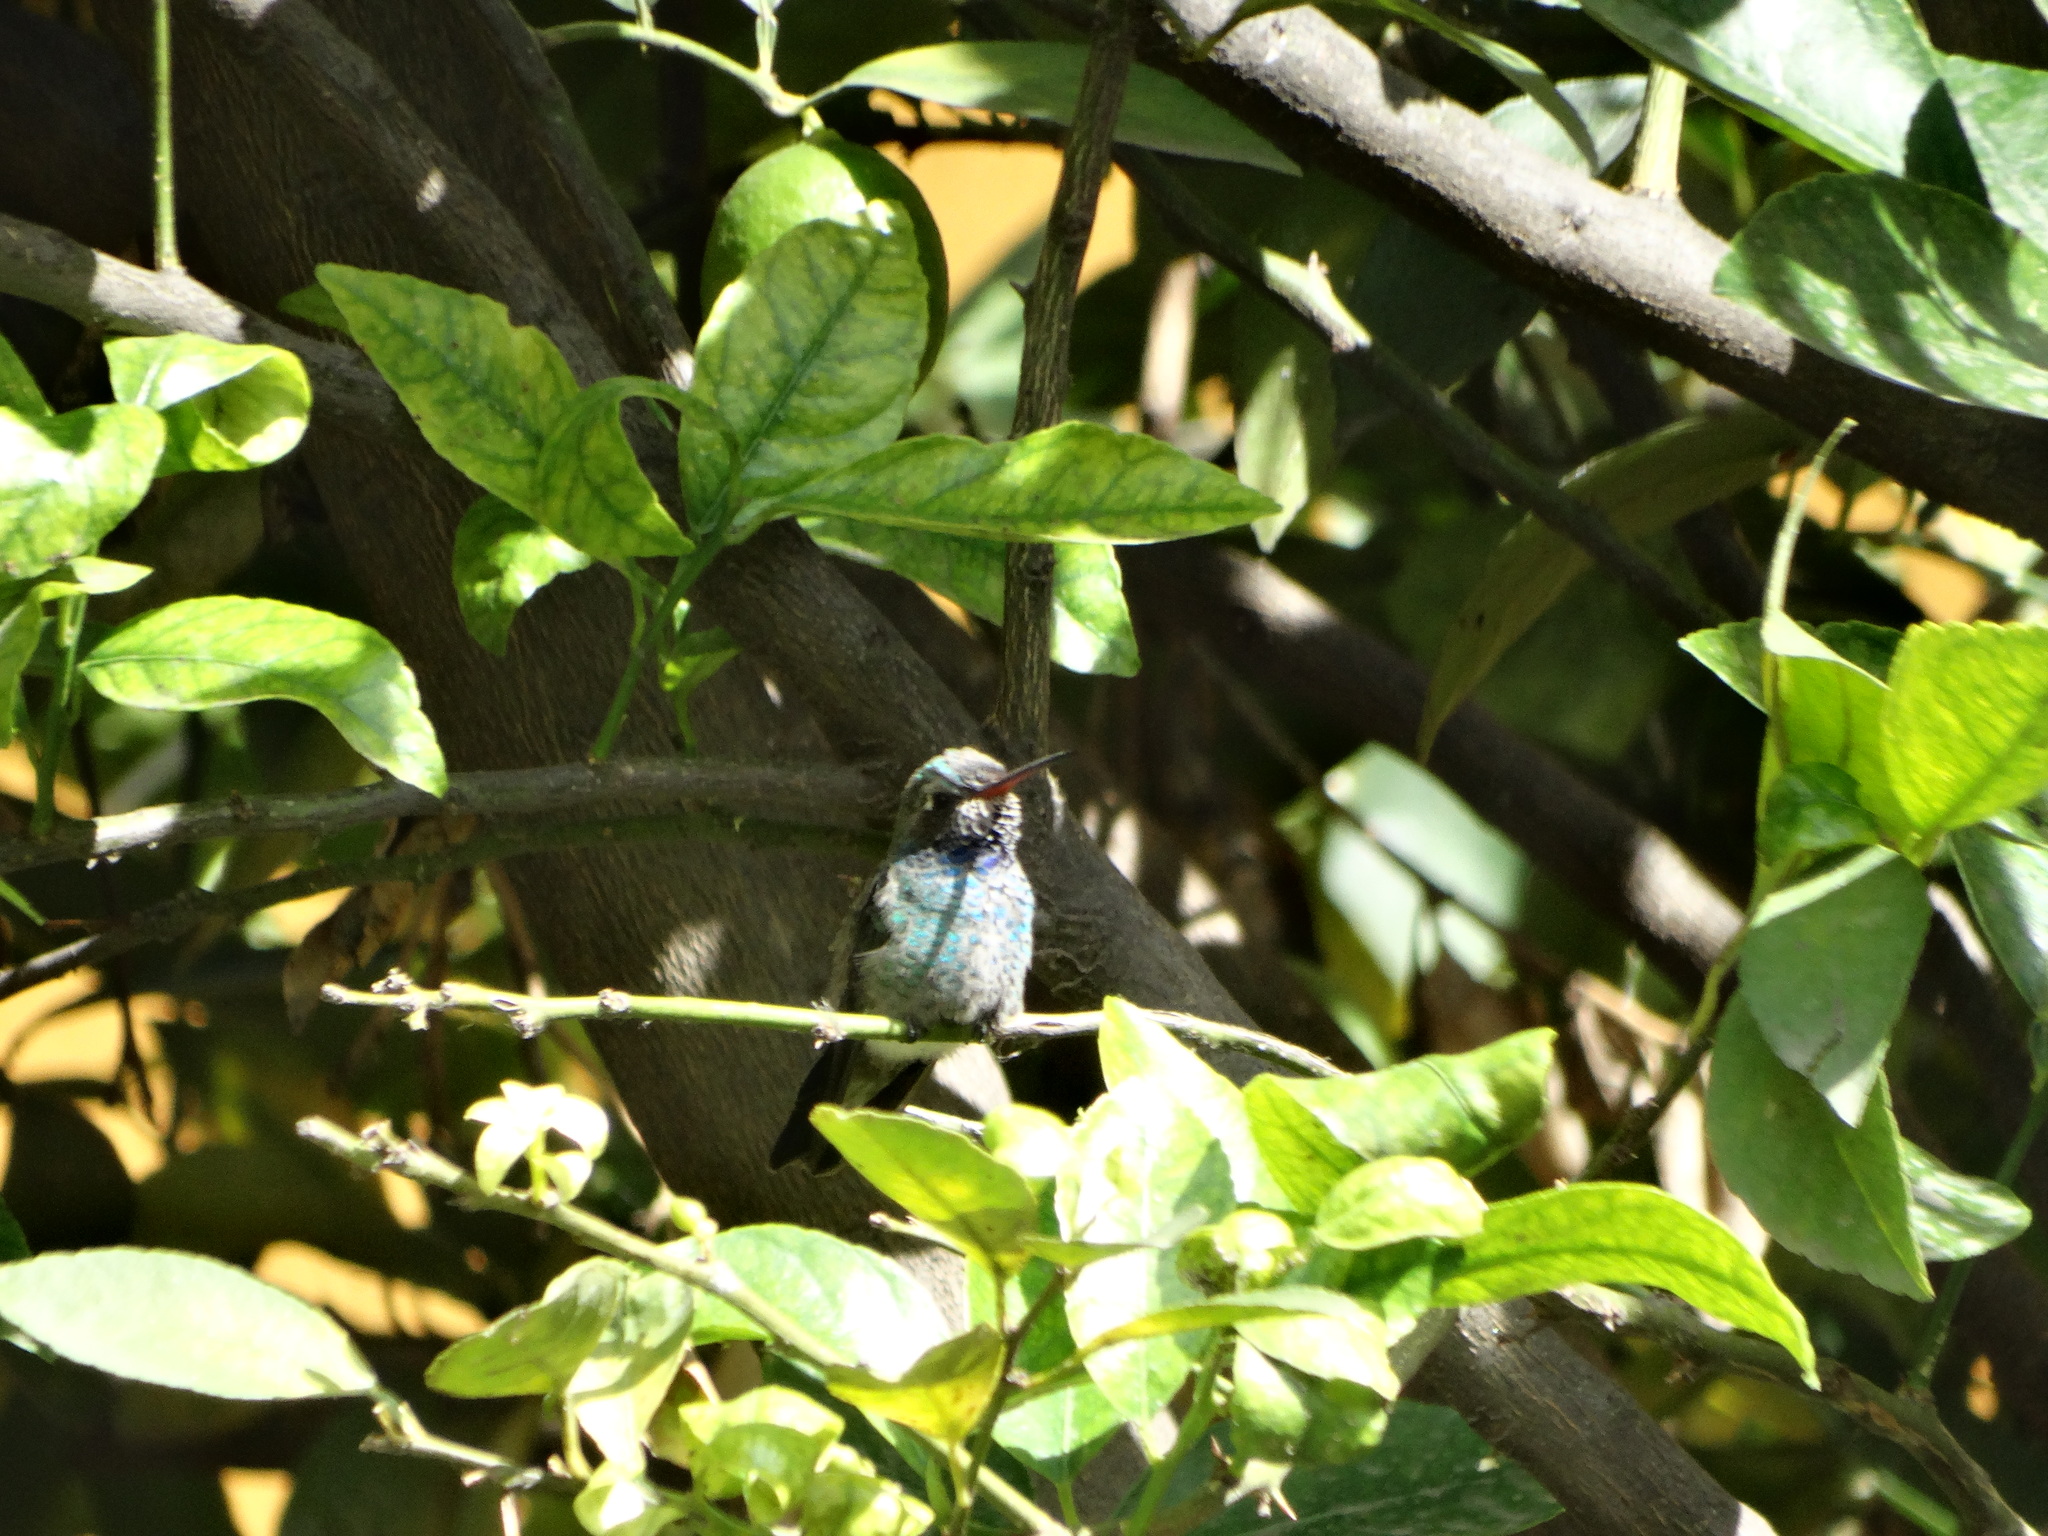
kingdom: Animalia
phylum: Chordata
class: Aves
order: Apodiformes
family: Trochilidae
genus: Cynanthus
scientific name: Cynanthus latirostris
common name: Broad-billed hummingbird
